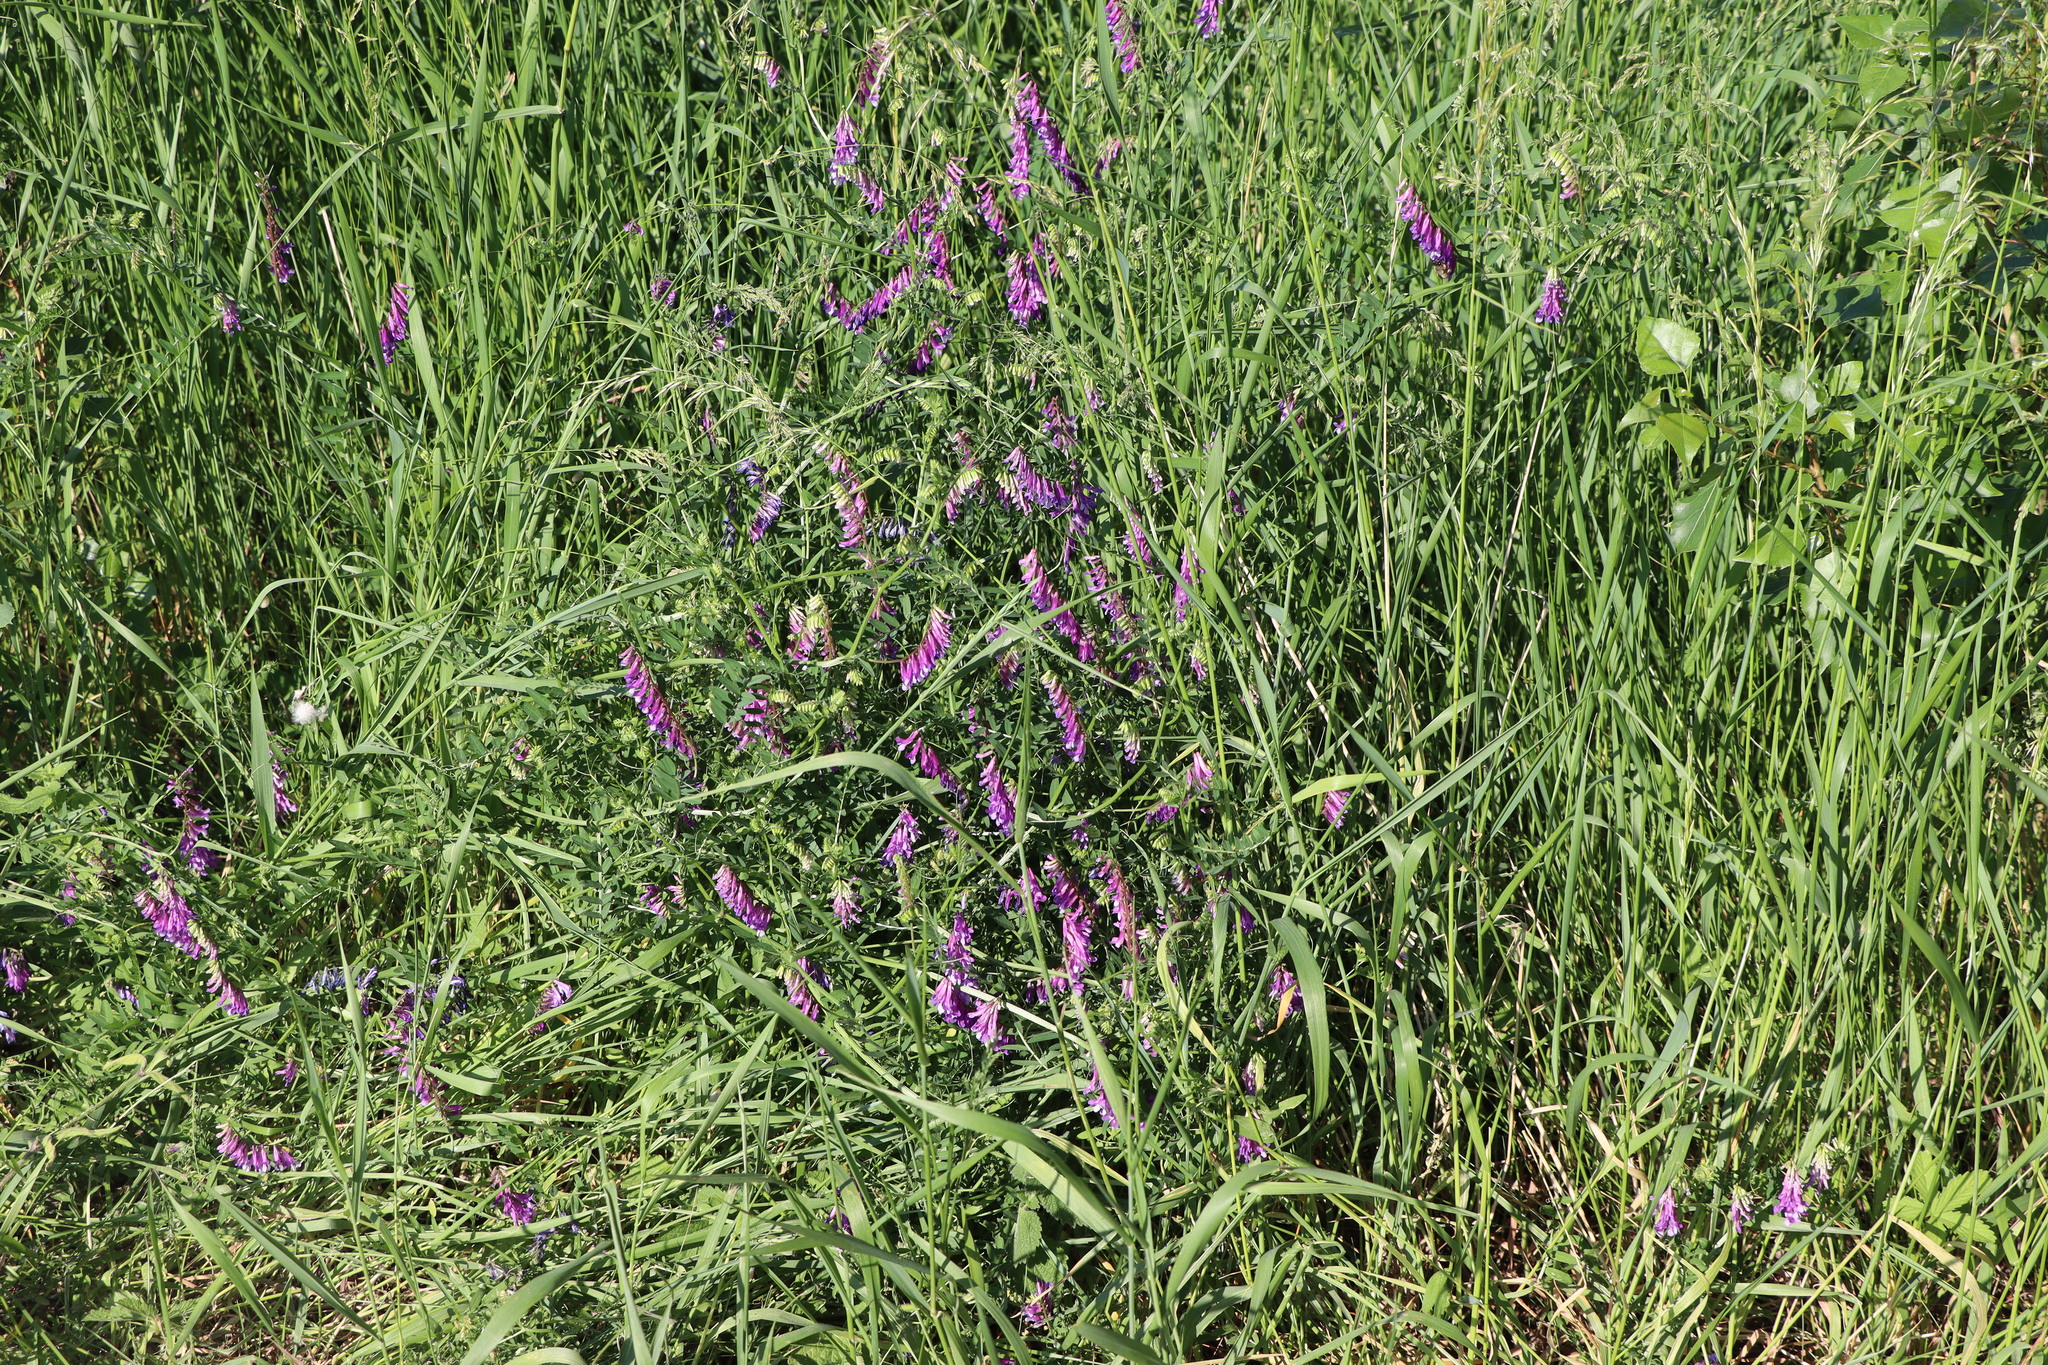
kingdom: Plantae
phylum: Tracheophyta
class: Magnoliopsida
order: Fabales
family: Fabaceae
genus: Vicia
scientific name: Vicia villosa
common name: Fodder vetch
